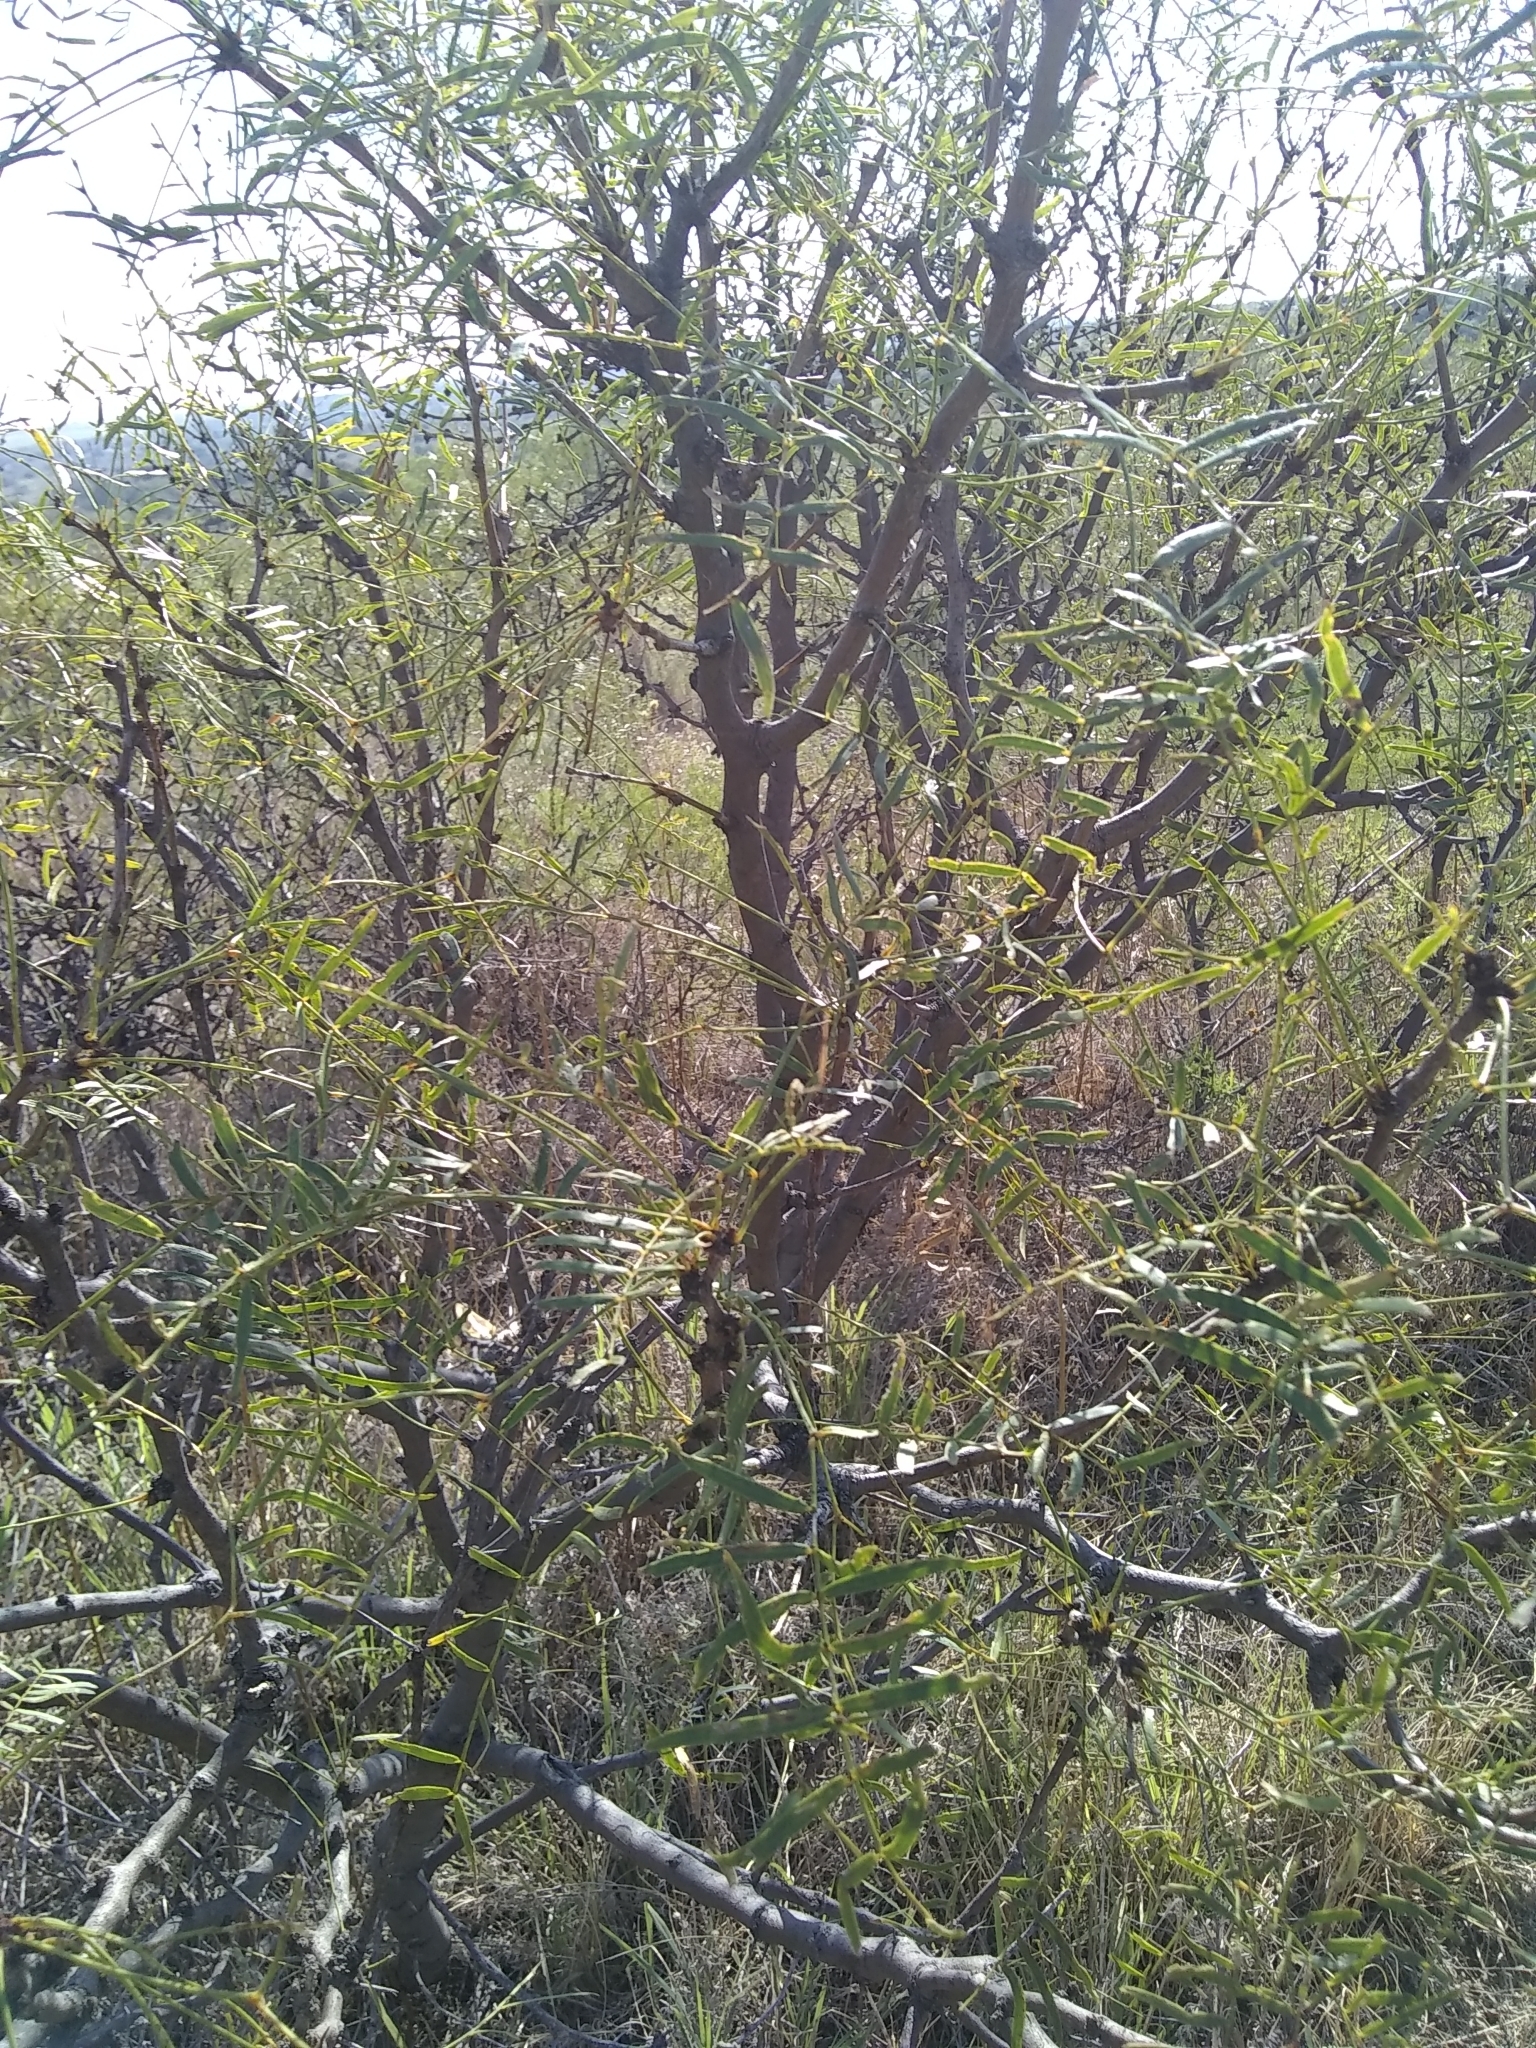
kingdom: Plantae
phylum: Tracheophyta
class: Magnoliopsida
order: Fabales
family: Fabaceae
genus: Prosopis
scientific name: Prosopis glandulosa
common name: Honey mesquite
